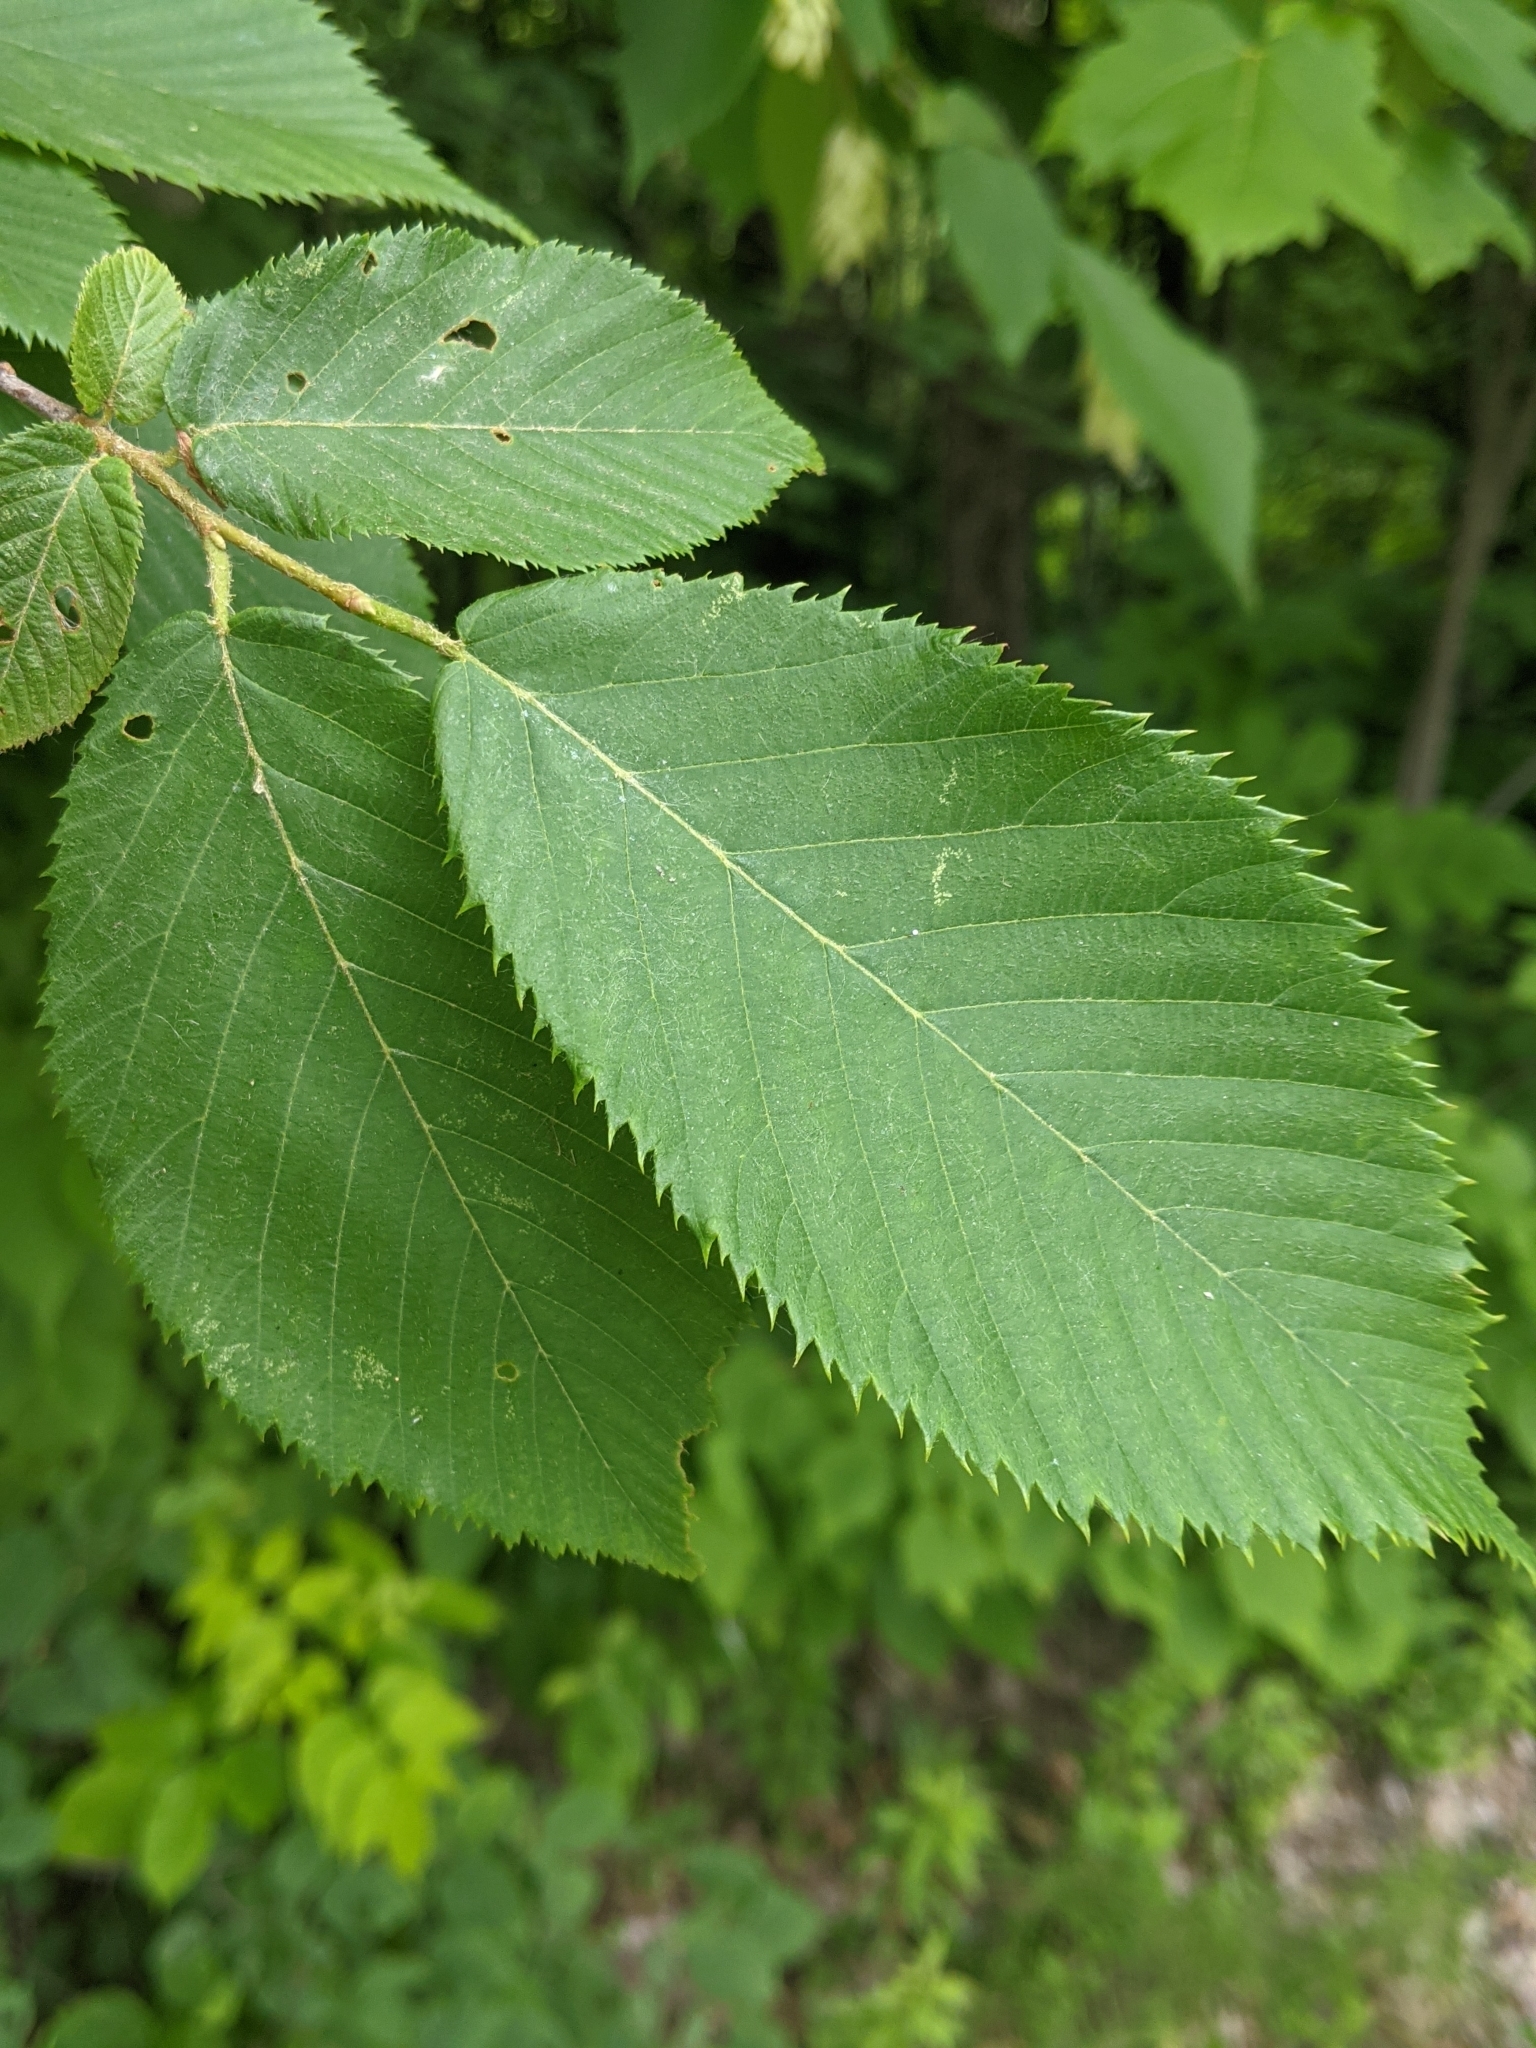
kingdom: Plantae
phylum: Tracheophyta
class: Magnoliopsida
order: Fagales
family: Betulaceae
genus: Ostrya
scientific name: Ostrya virginiana
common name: Ironwood
